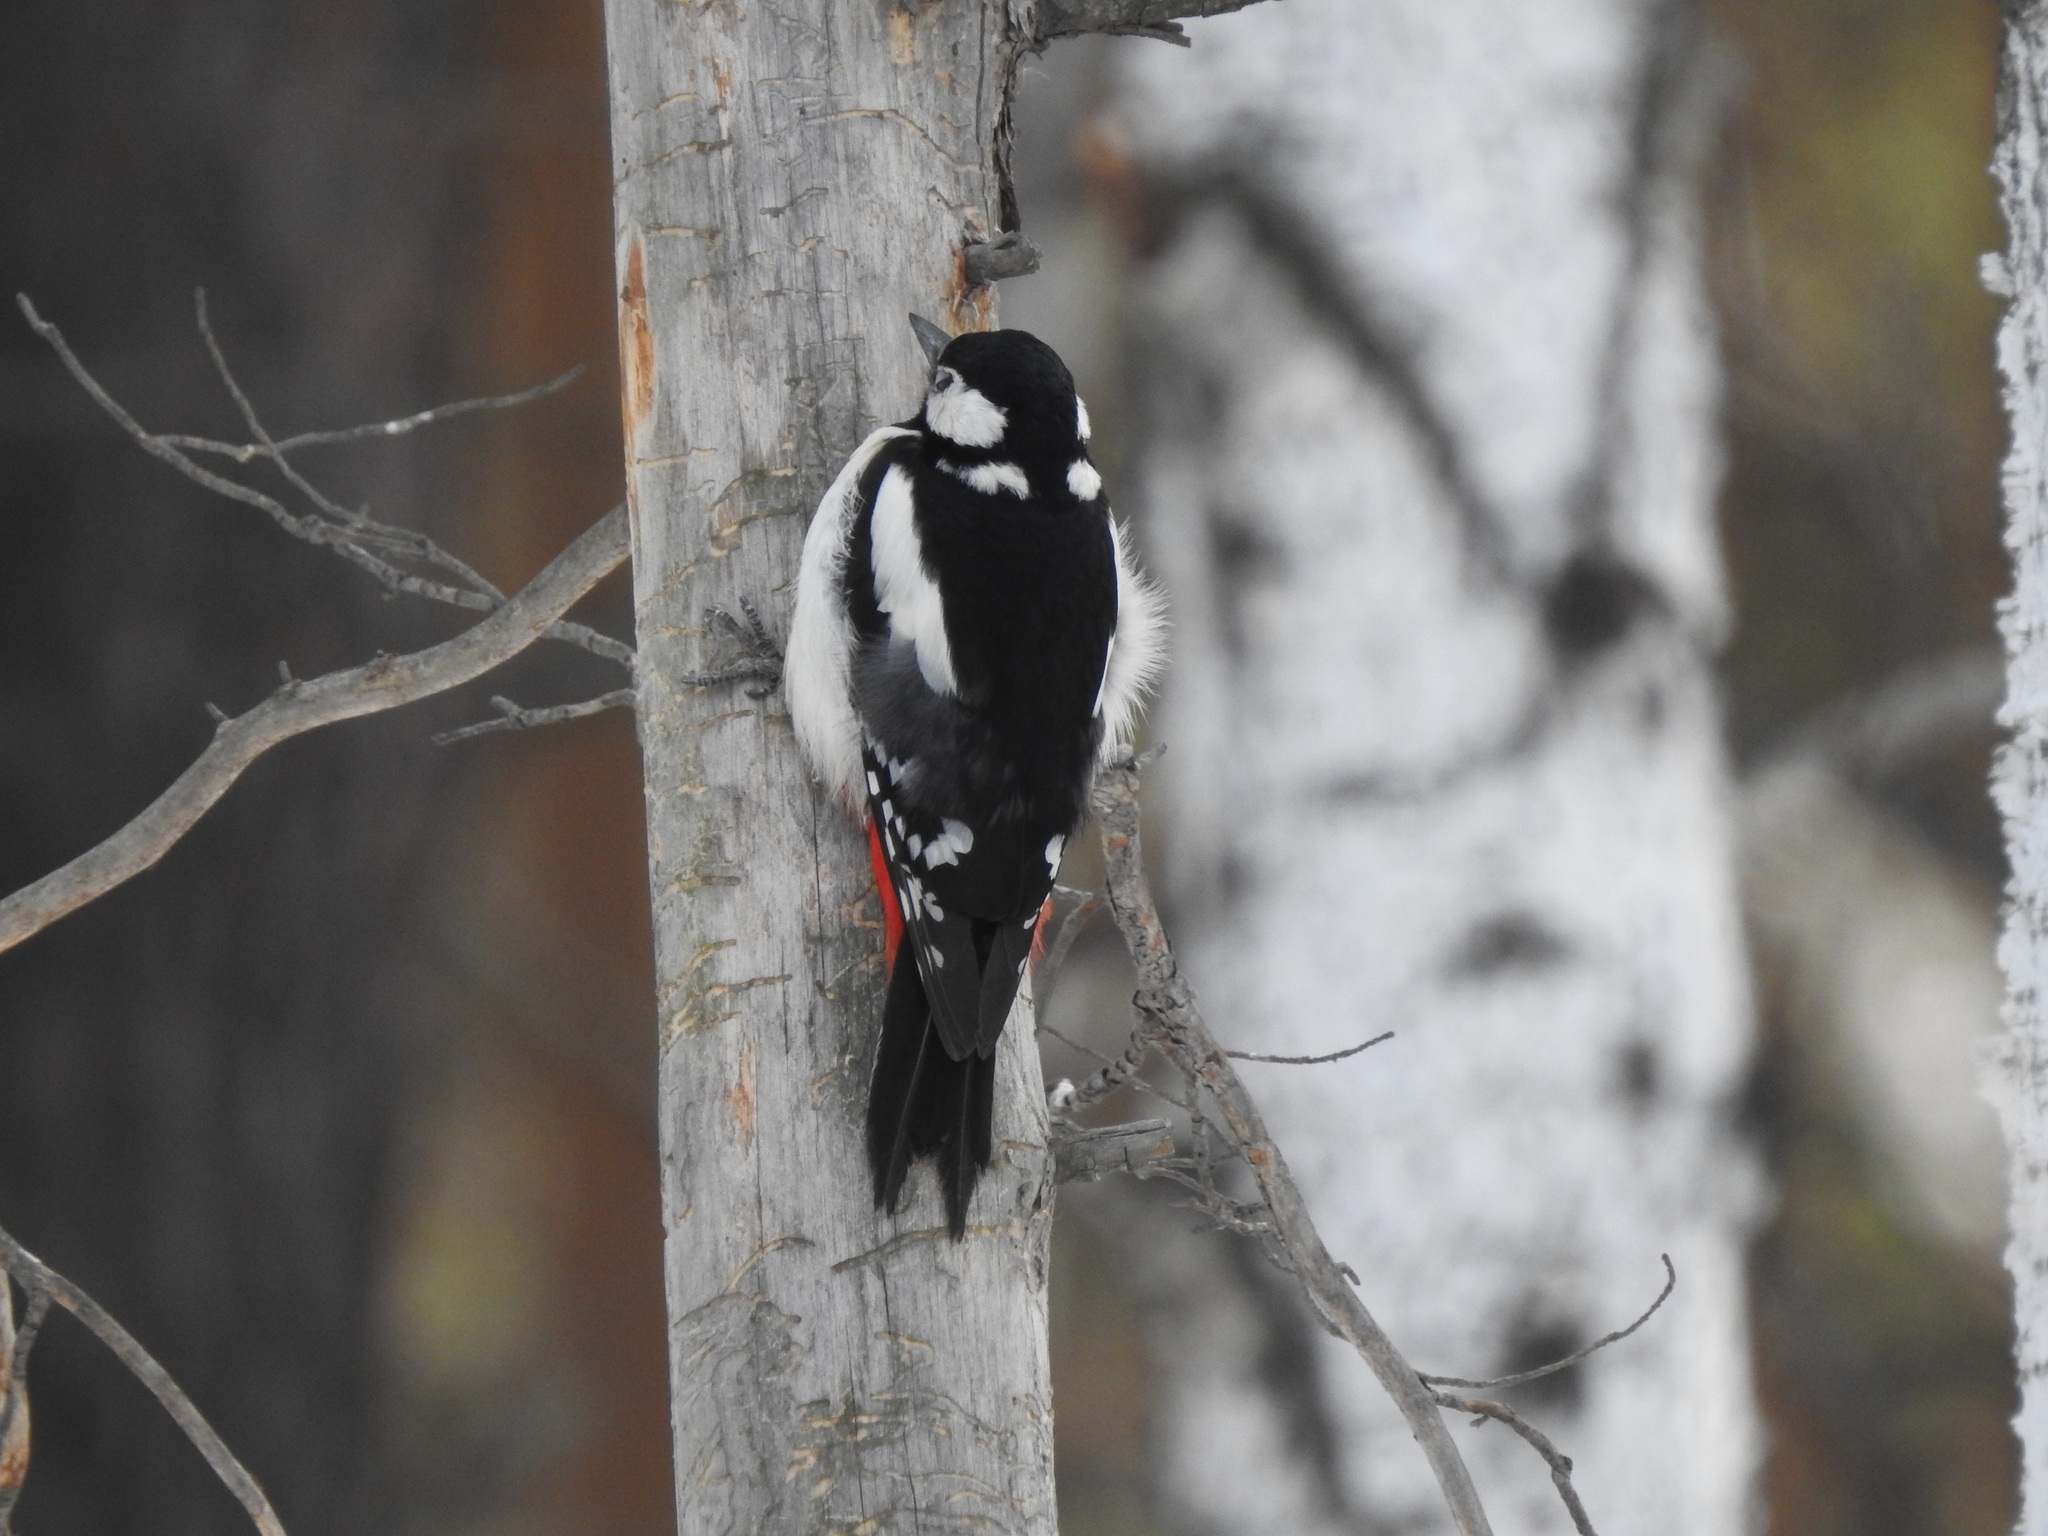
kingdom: Animalia
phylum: Chordata
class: Aves
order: Piciformes
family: Picidae
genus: Dendrocopos
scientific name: Dendrocopos major
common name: Great spotted woodpecker
